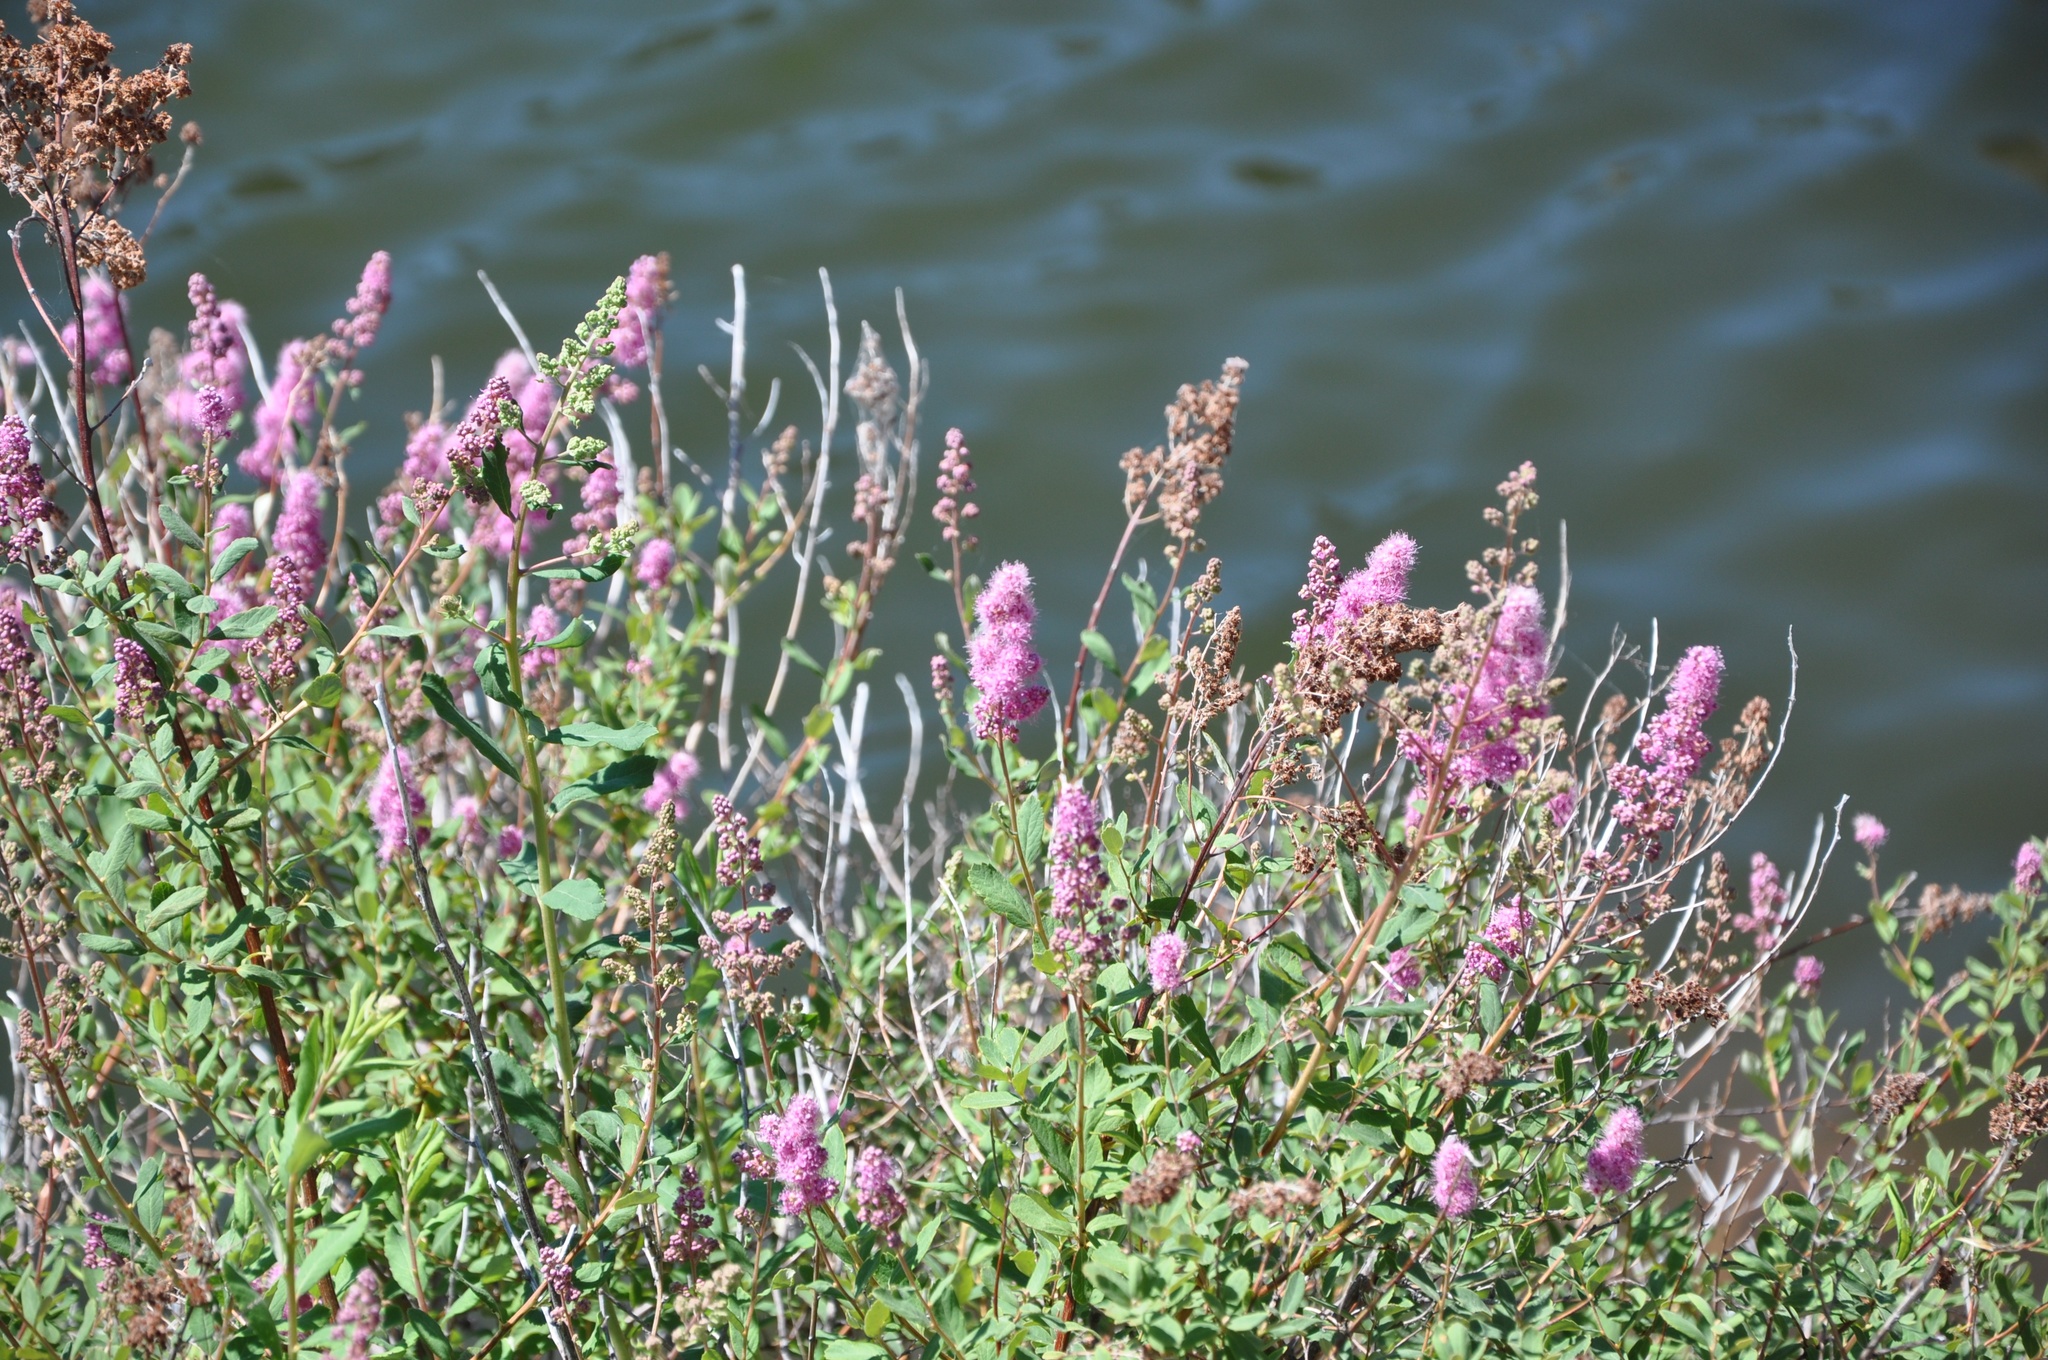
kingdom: Plantae
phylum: Tracheophyta
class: Magnoliopsida
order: Rosales
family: Rosaceae
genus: Spiraea
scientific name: Spiraea douglasii
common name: Steeplebush
